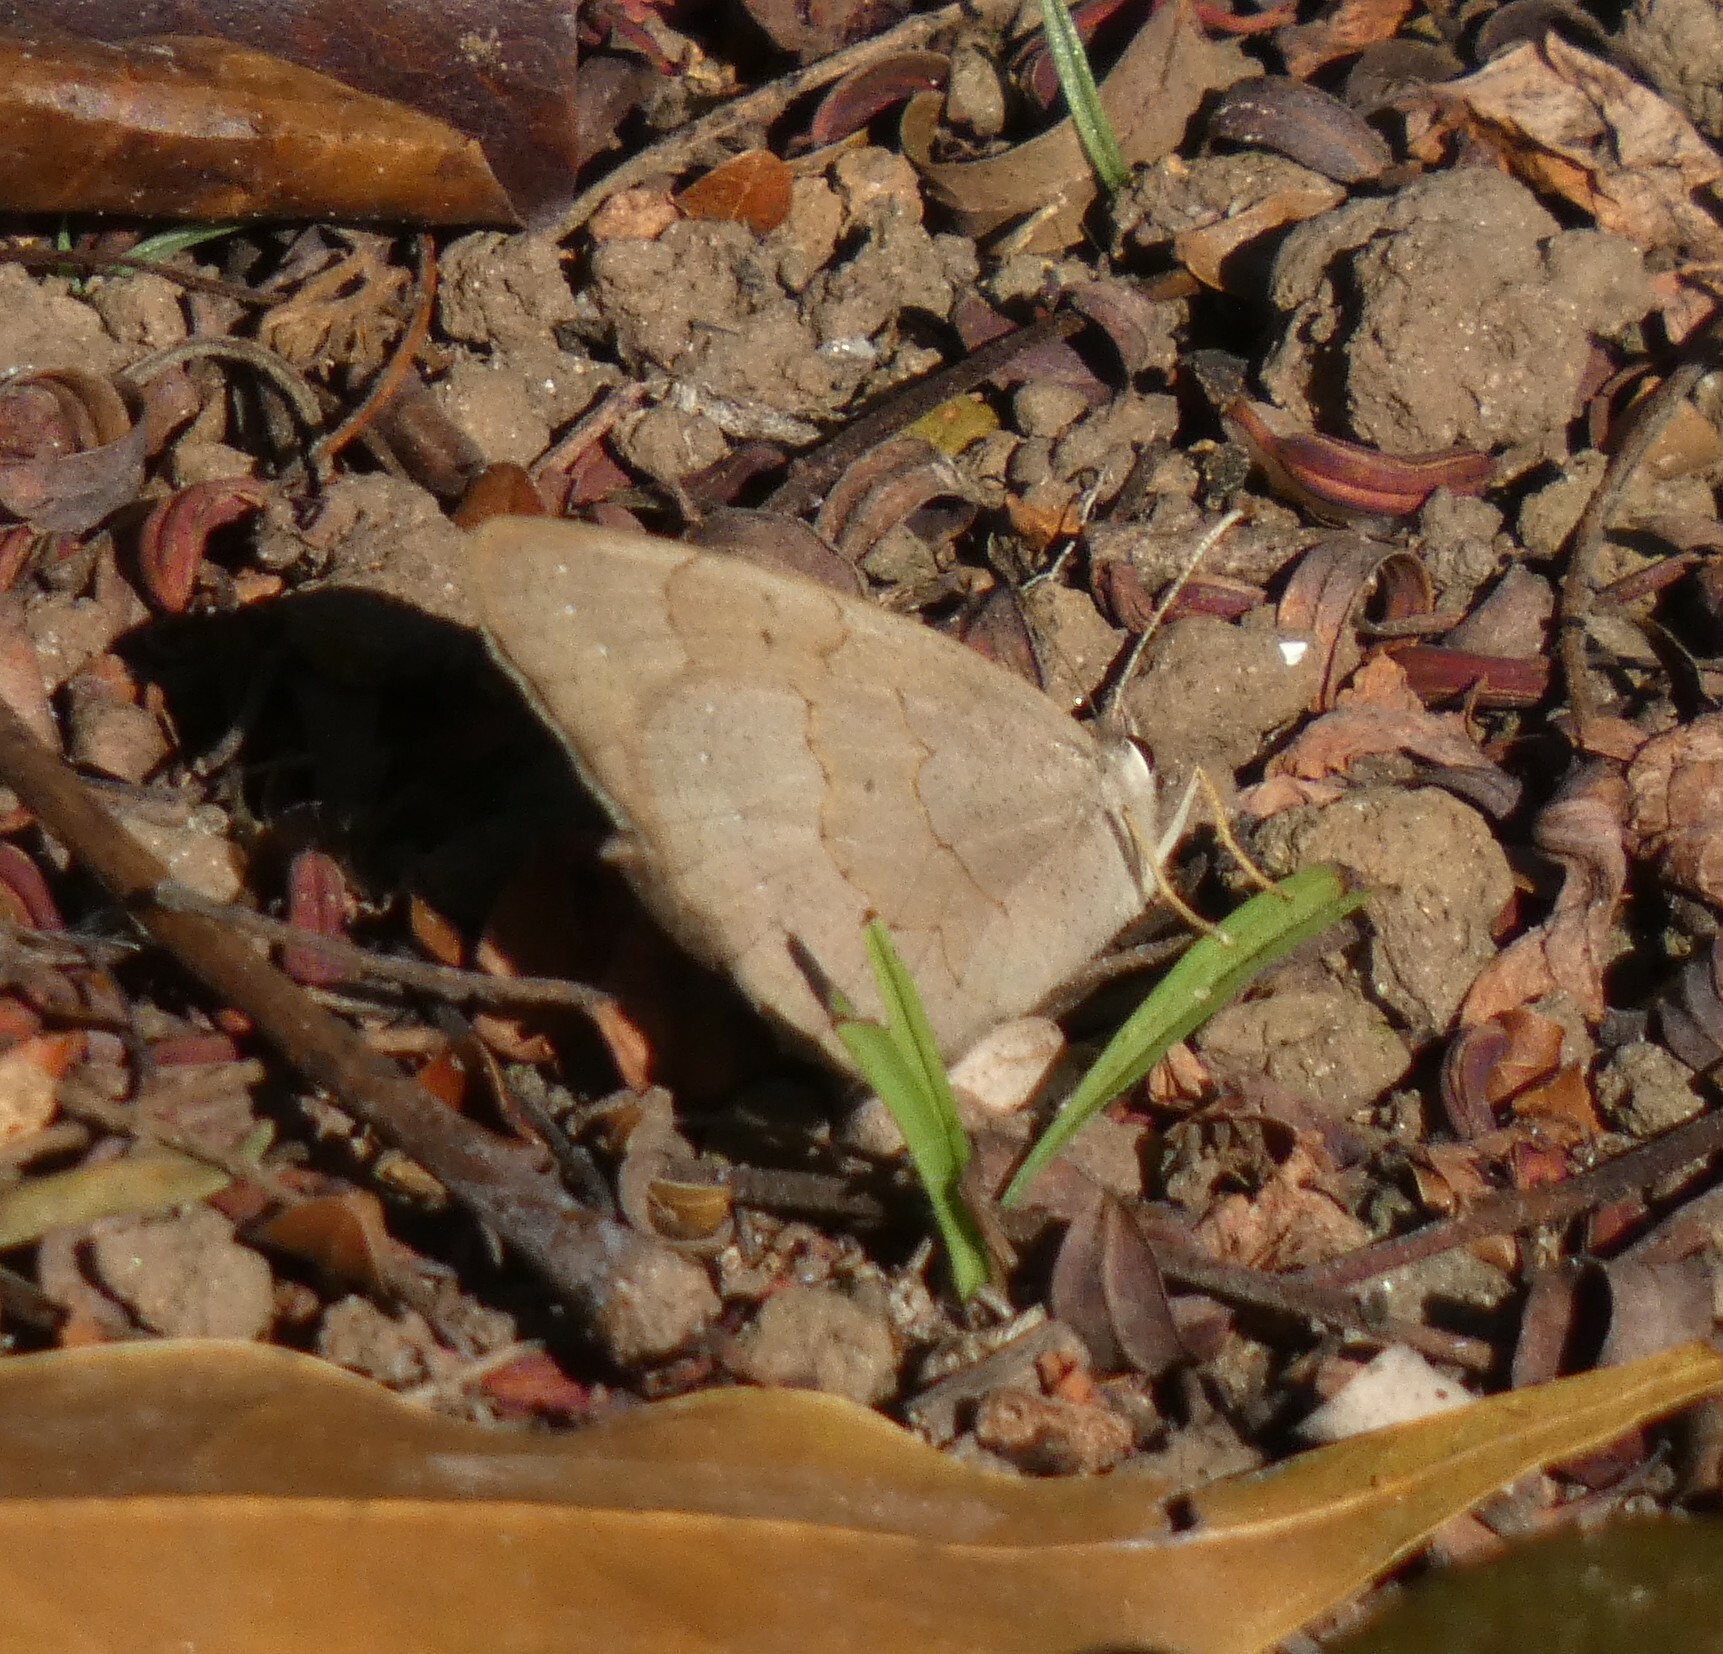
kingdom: Animalia
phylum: Arthropoda
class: Insecta
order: Lepidoptera
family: Nymphalidae
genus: Euptychia
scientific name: Euptychia Cissia eous
